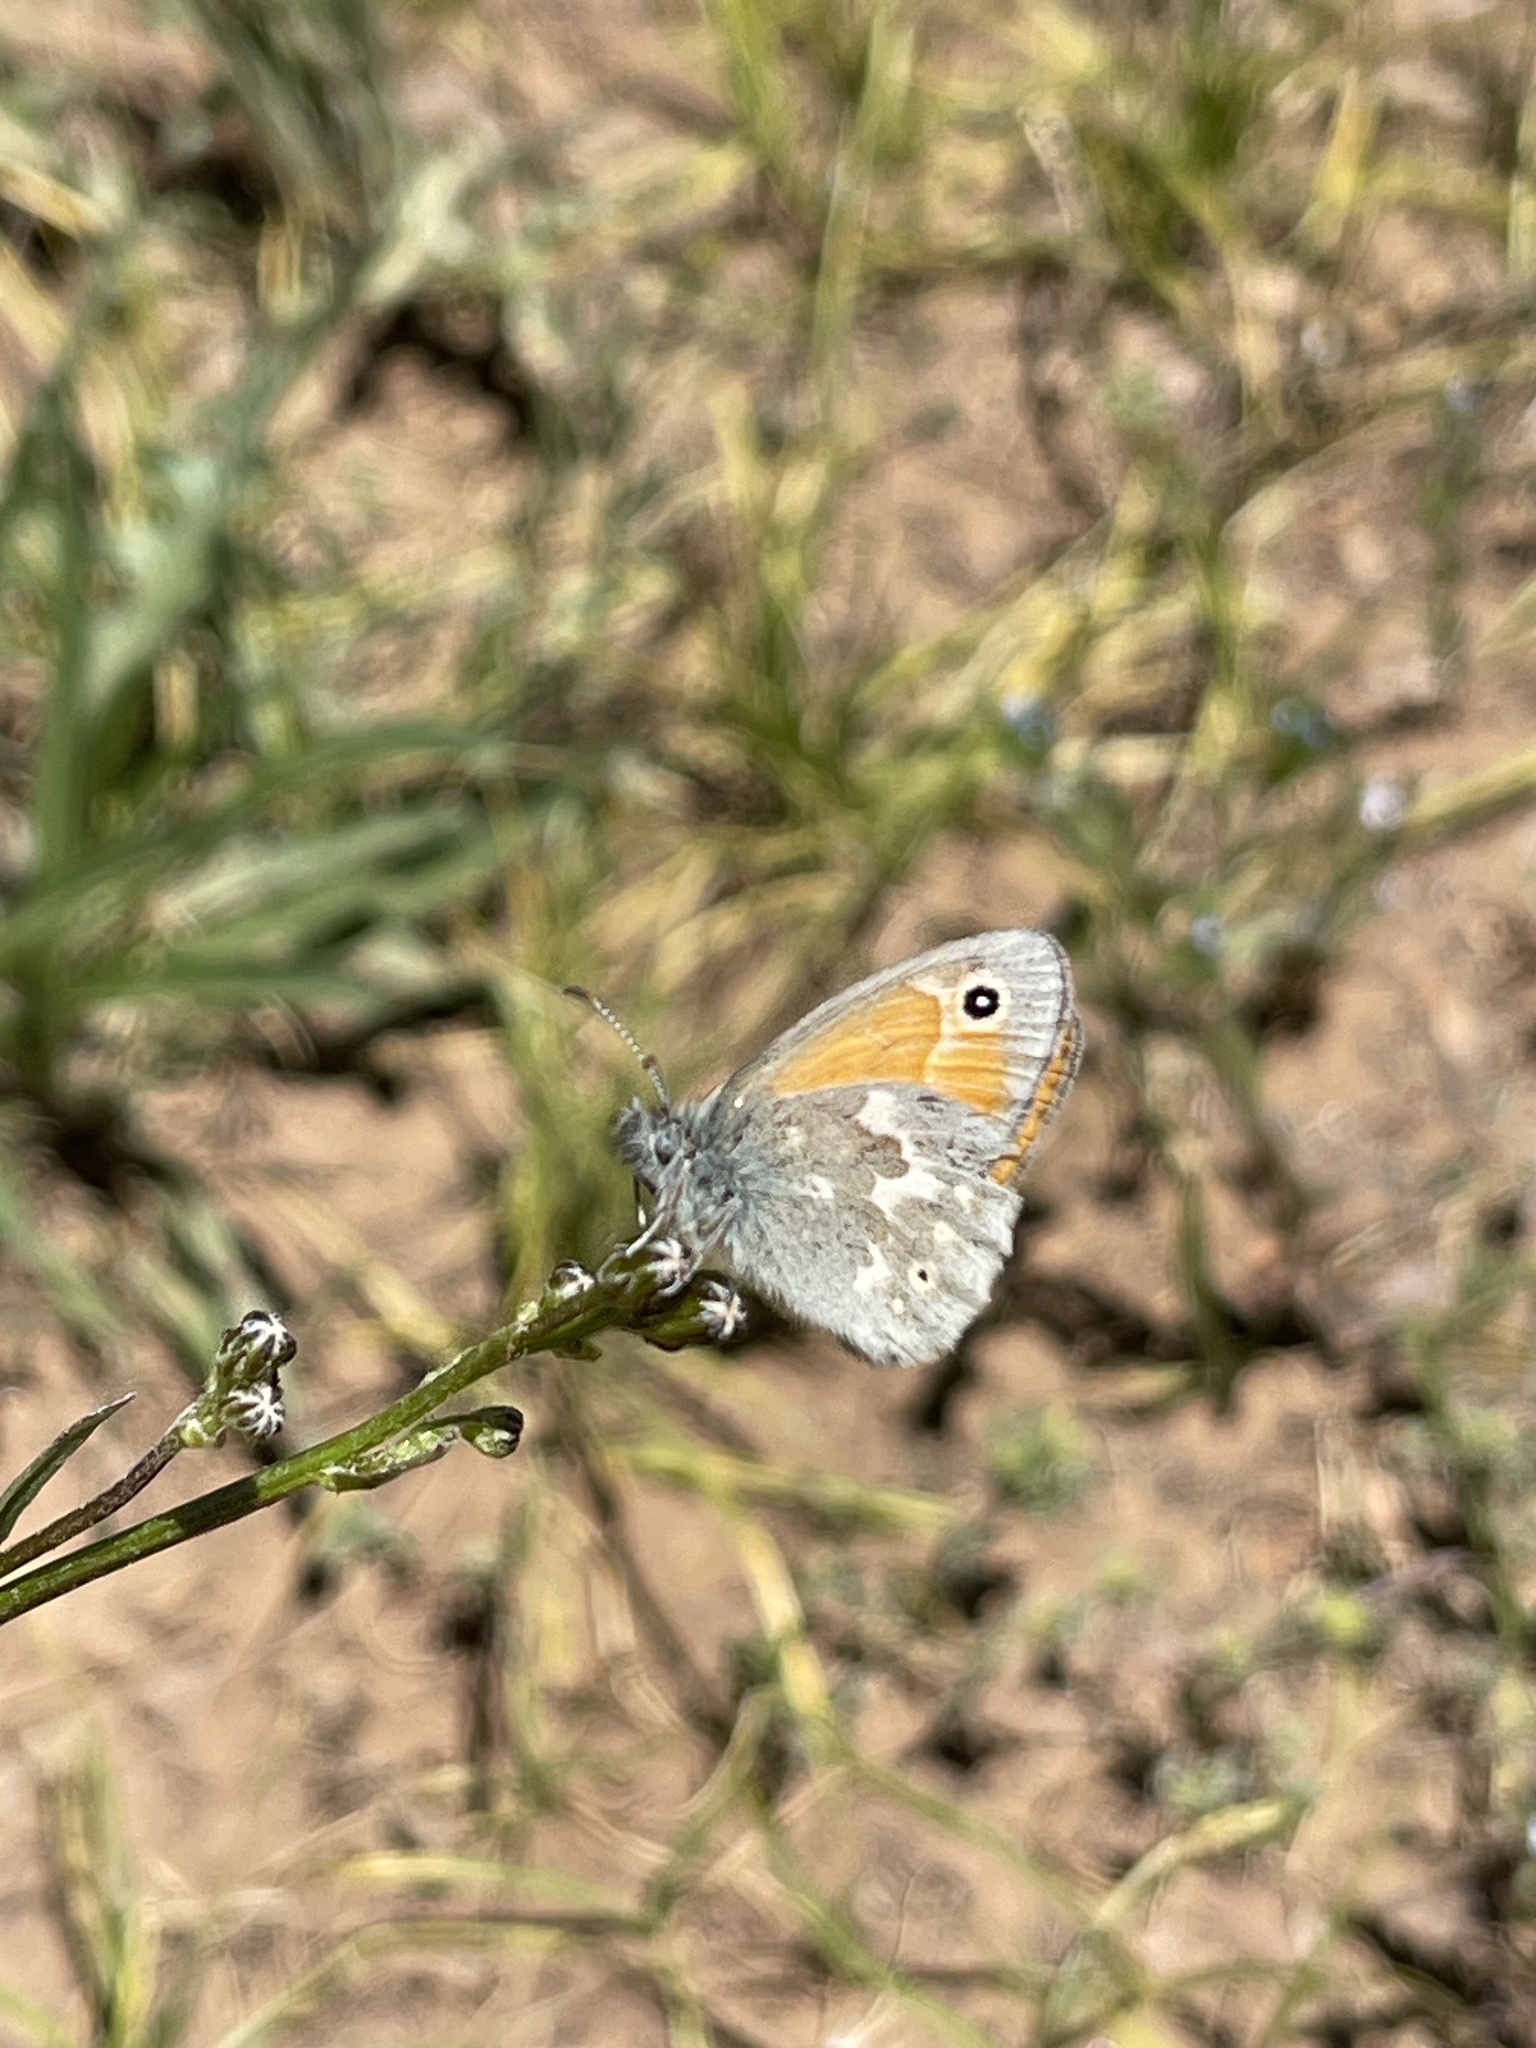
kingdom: Animalia
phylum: Arthropoda
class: Insecta
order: Lepidoptera
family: Nymphalidae
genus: Coenonympha
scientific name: Coenonympha california
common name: Common ringlet
